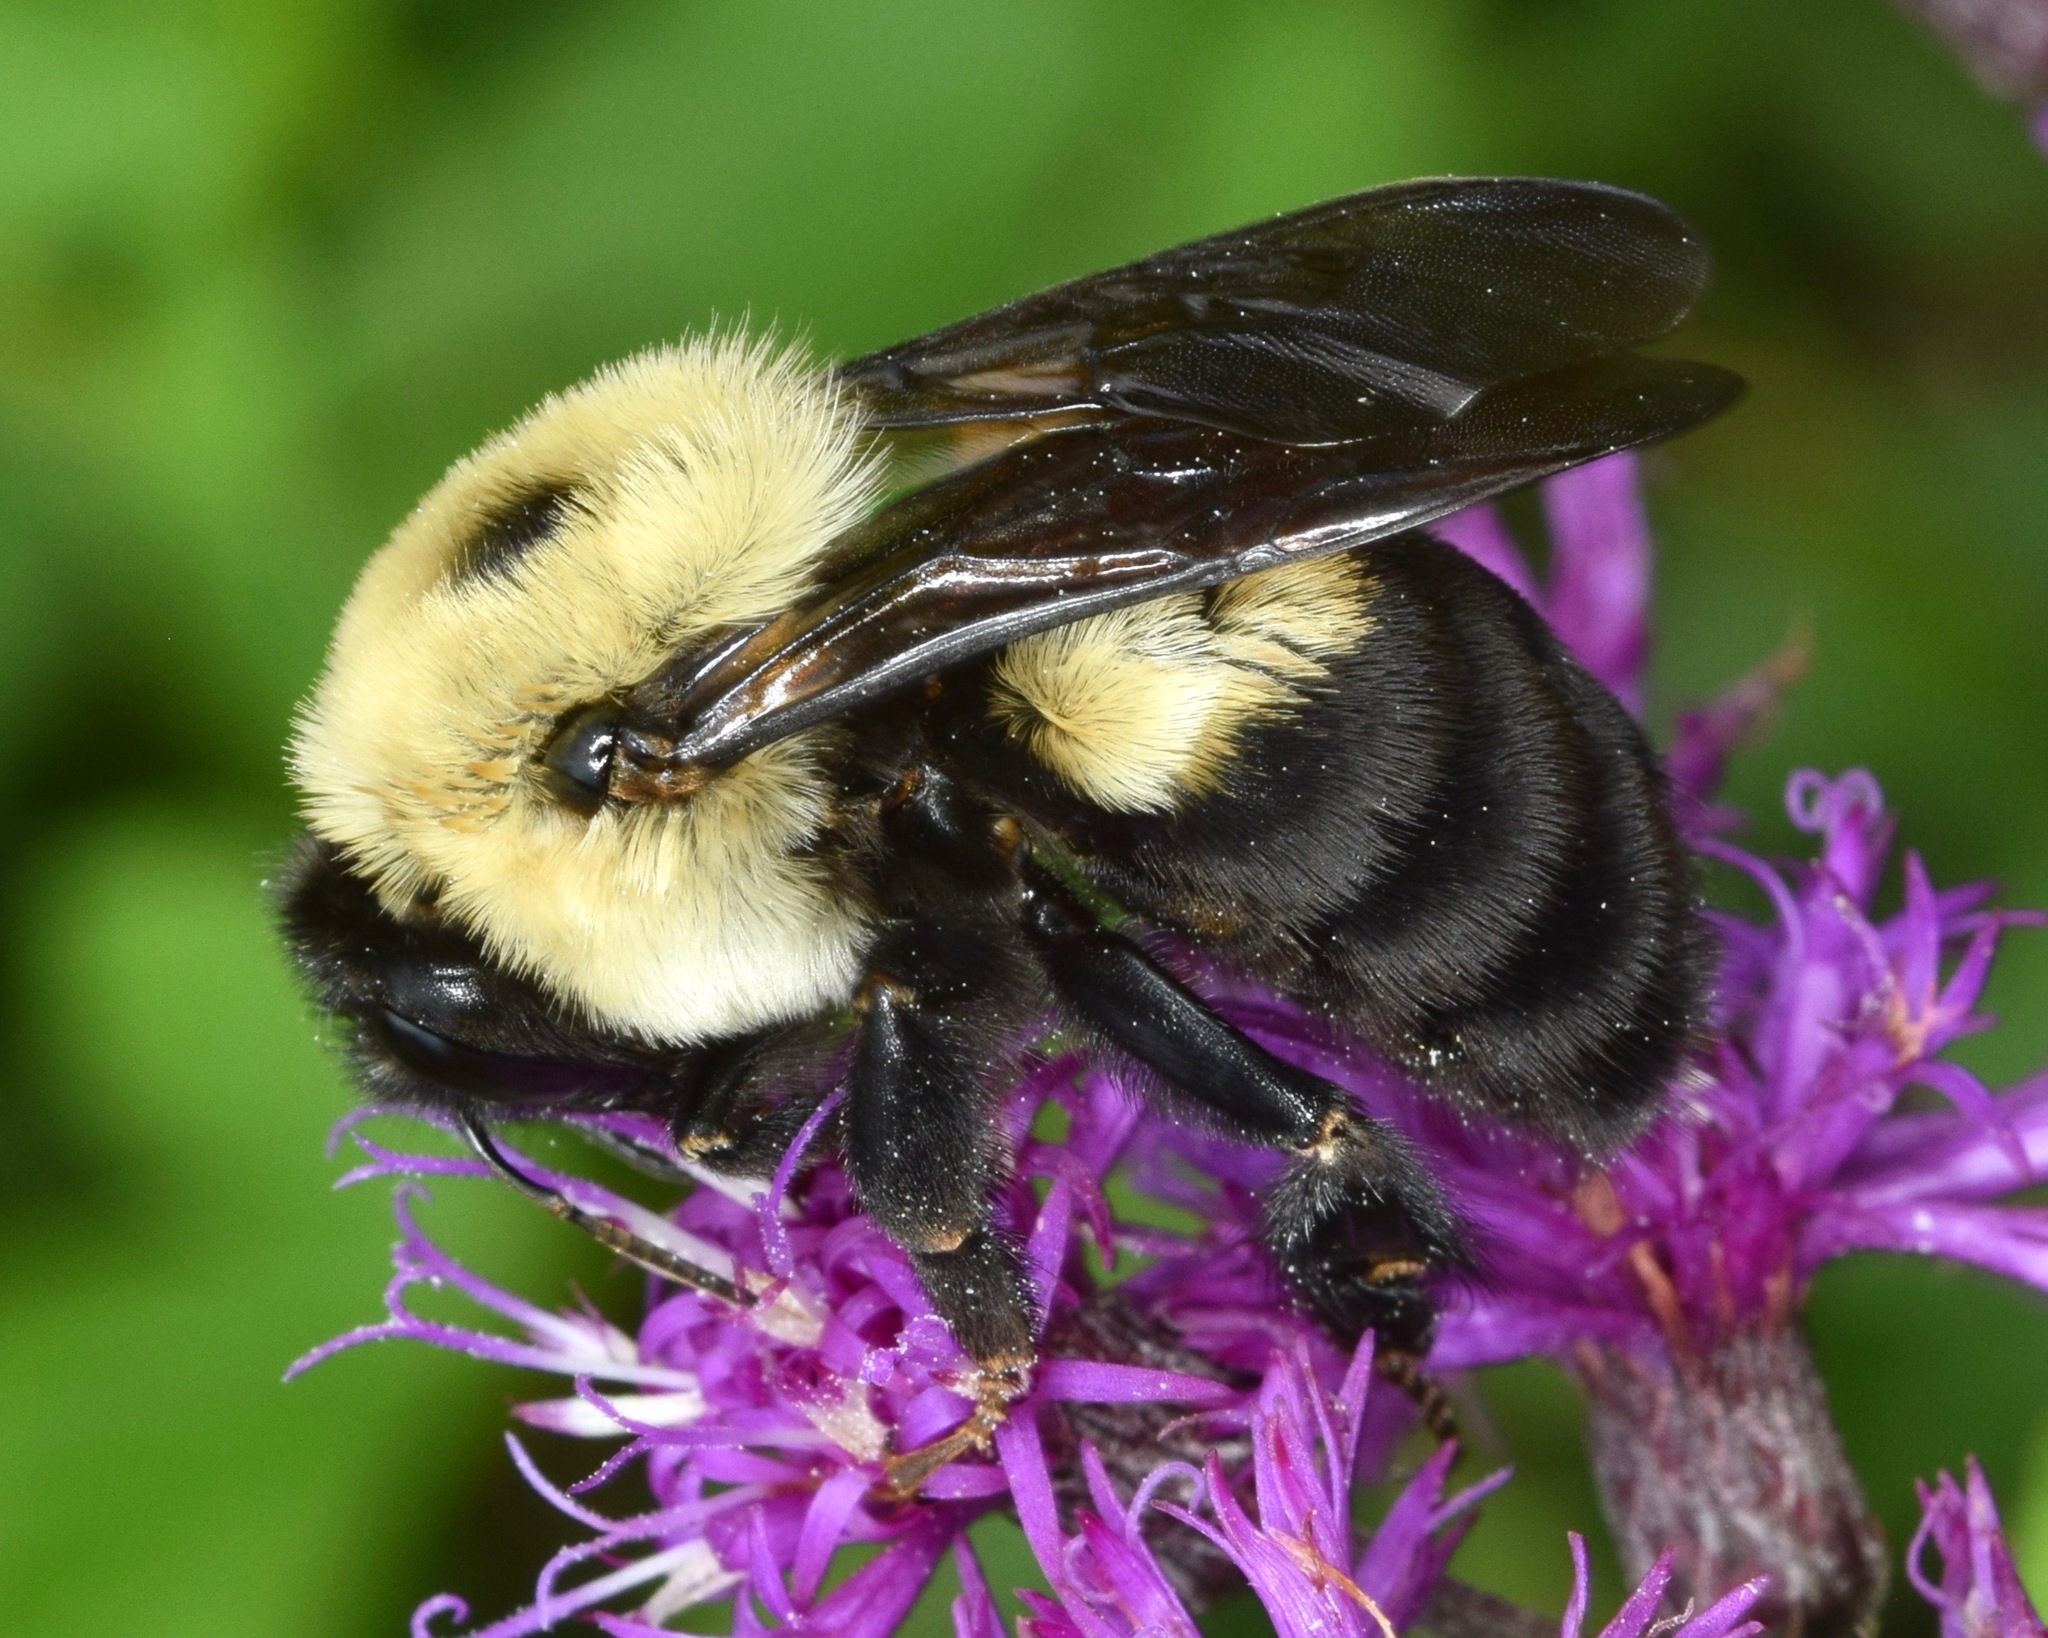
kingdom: Animalia
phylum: Arthropoda
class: Insecta
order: Hymenoptera
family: Apidae
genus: Bombus
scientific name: Bombus griseocollis
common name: Brown-belted bumble bee
